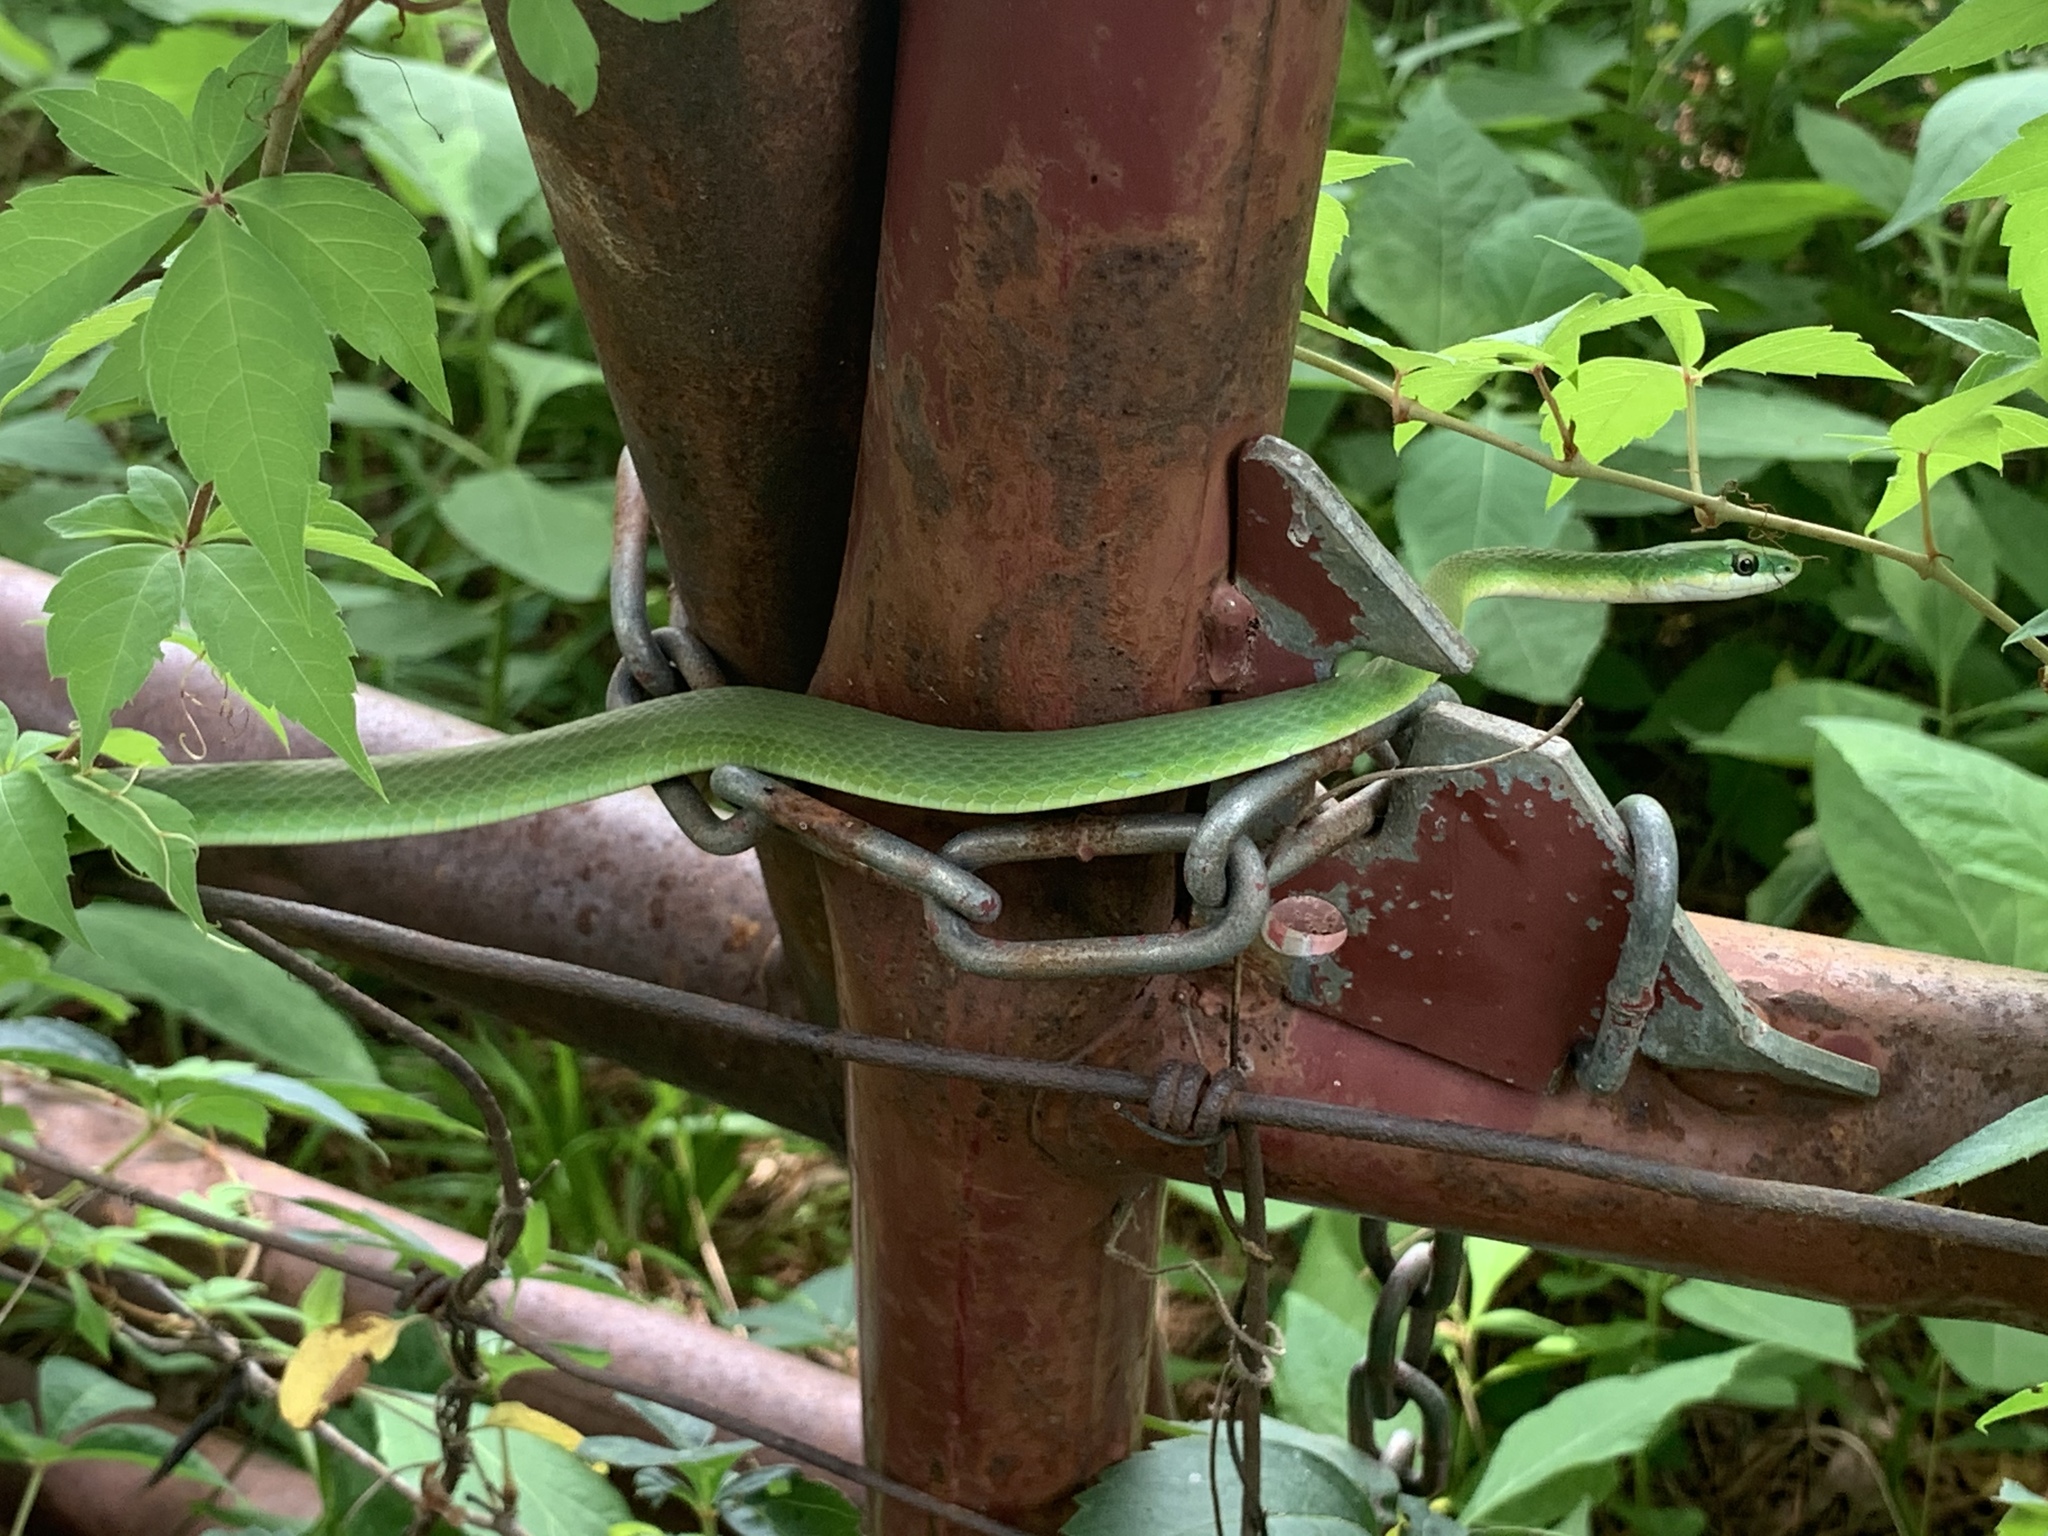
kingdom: Animalia
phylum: Chordata
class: Squamata
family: Colubridae
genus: Opheodrys
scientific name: Opheodrys aestivus
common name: Rough greensnake
